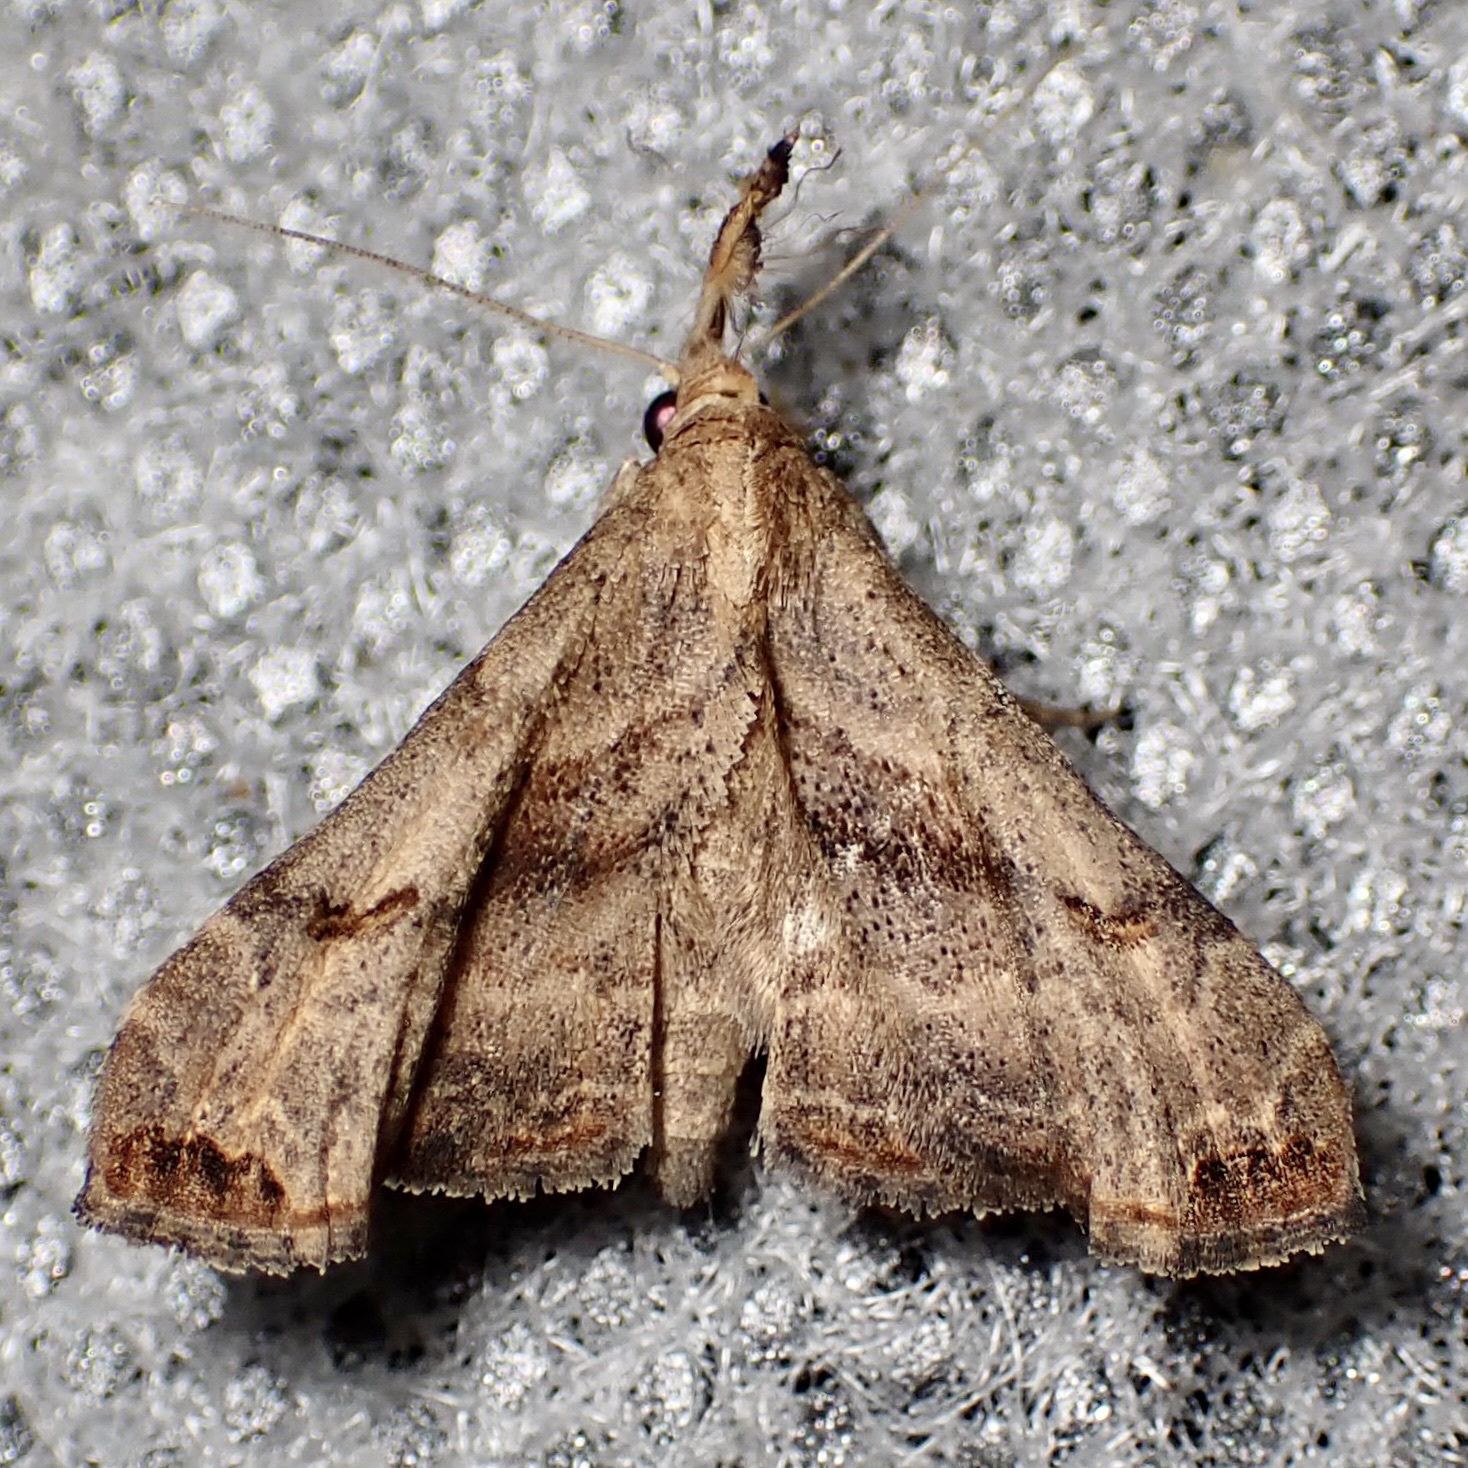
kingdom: Animalia
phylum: Arthropoda
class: Insecta
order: Lepidoptera
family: Erebidae
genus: Palthis
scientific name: Palthis angulalis
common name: Dark-spotted palthis moth
